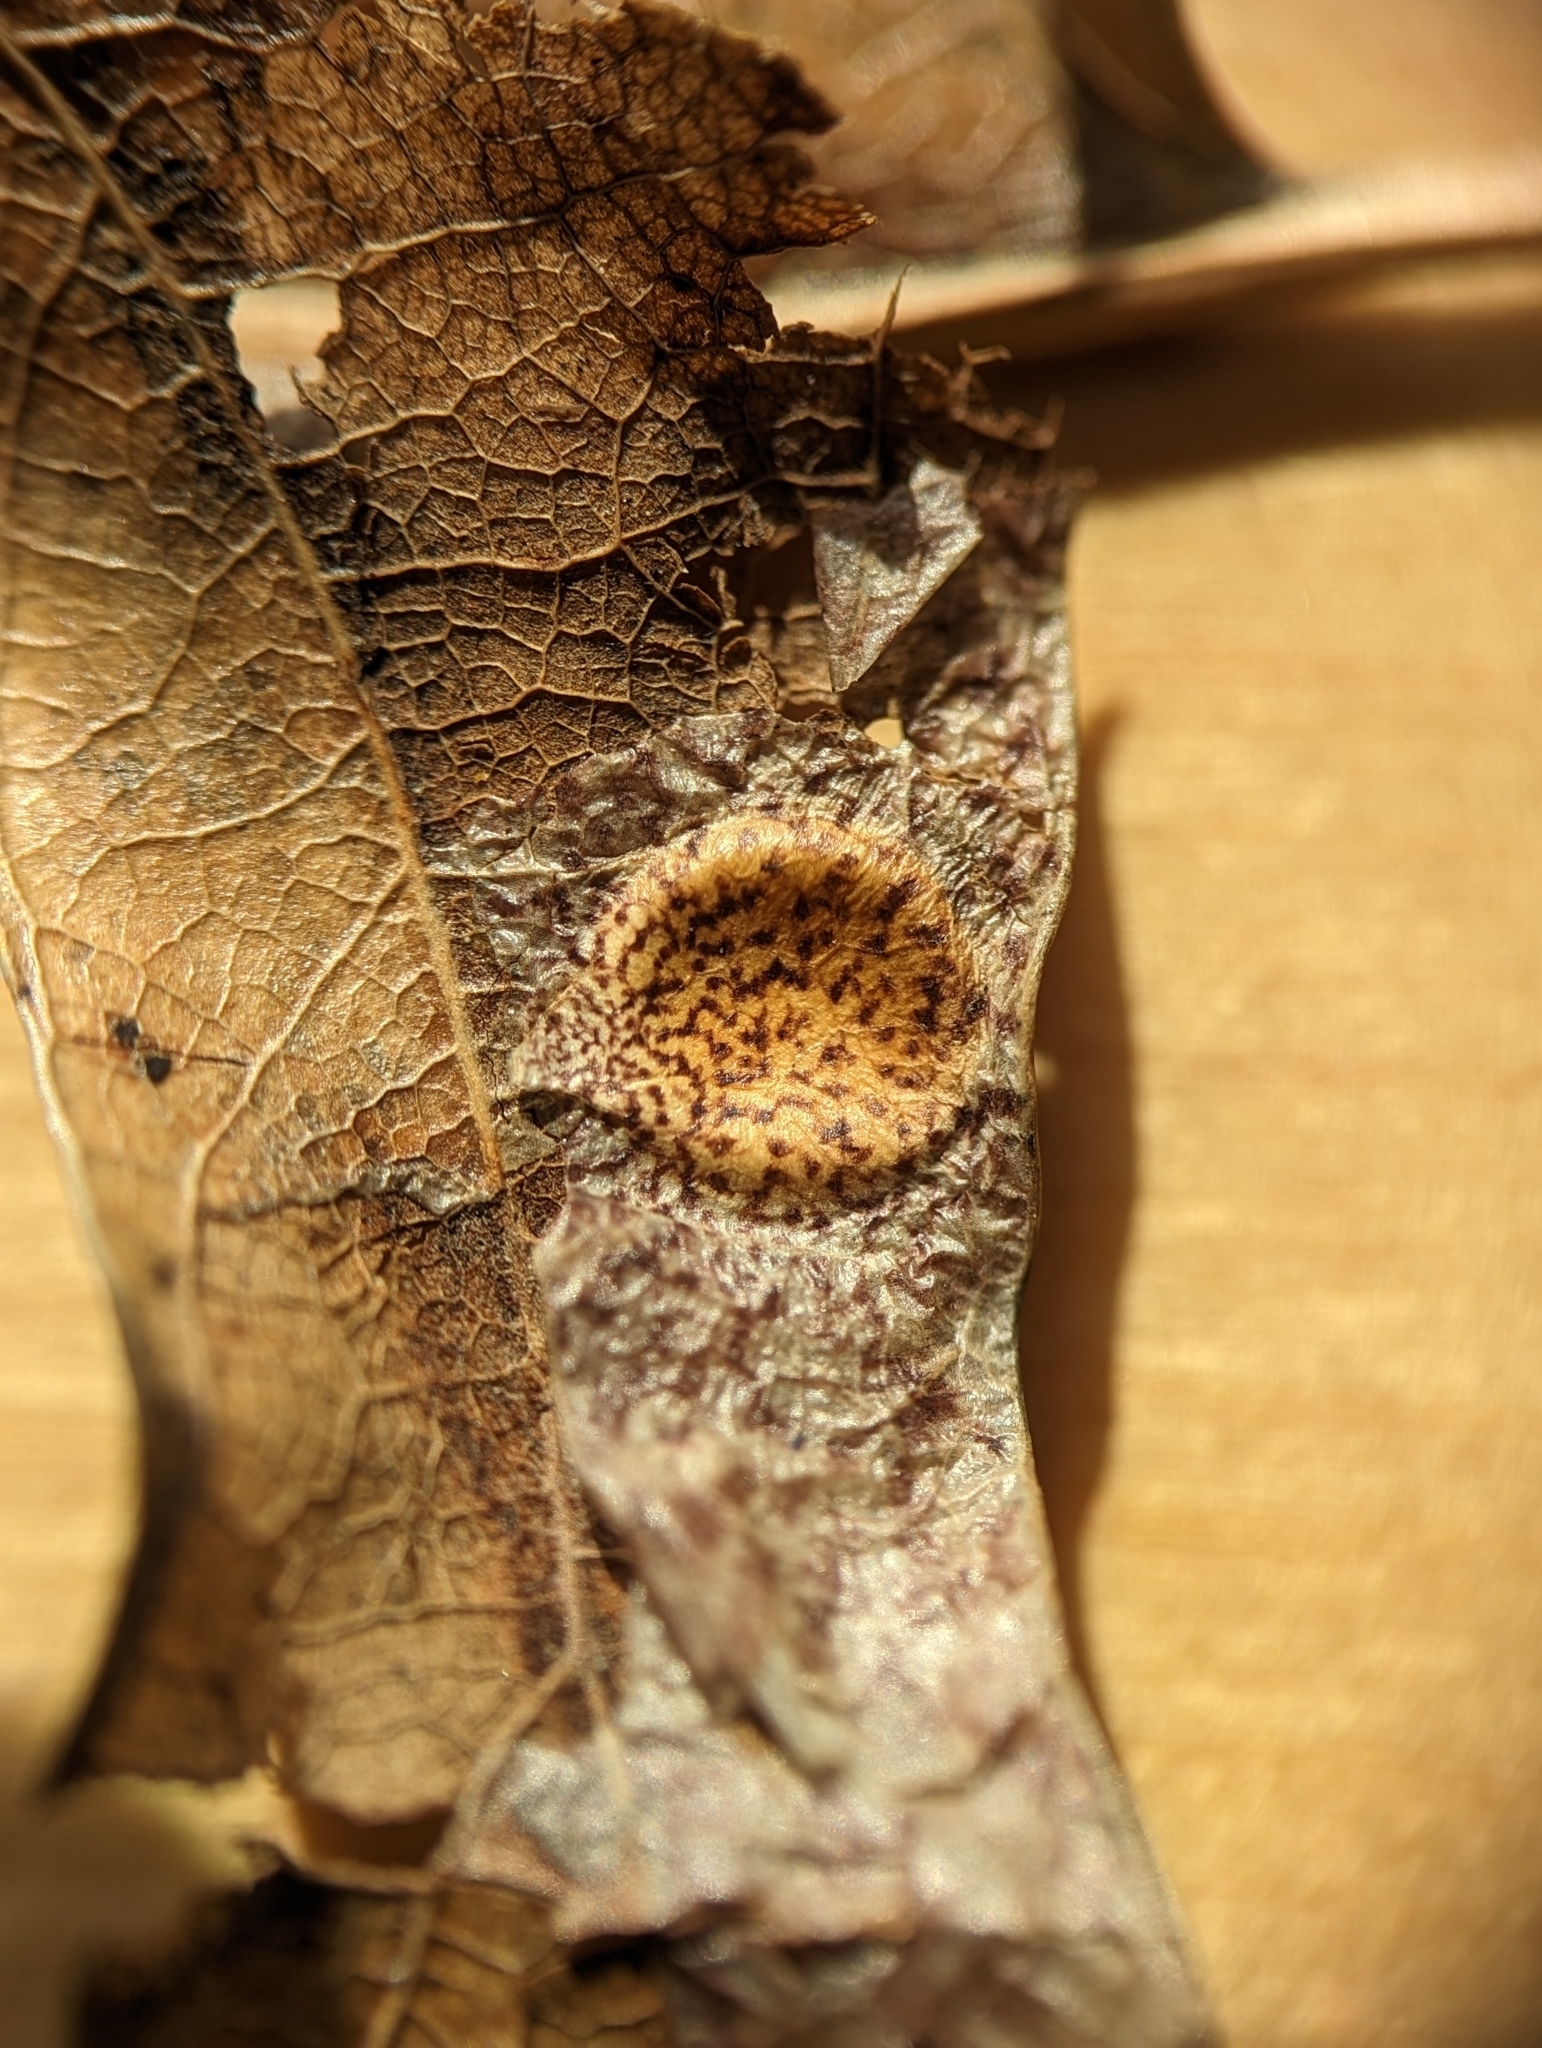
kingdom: Animalia
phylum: Arthropoda
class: Insecta
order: Lepidoptera
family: Tischeriidae
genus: Tischeria
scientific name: Tischeria quercitella
